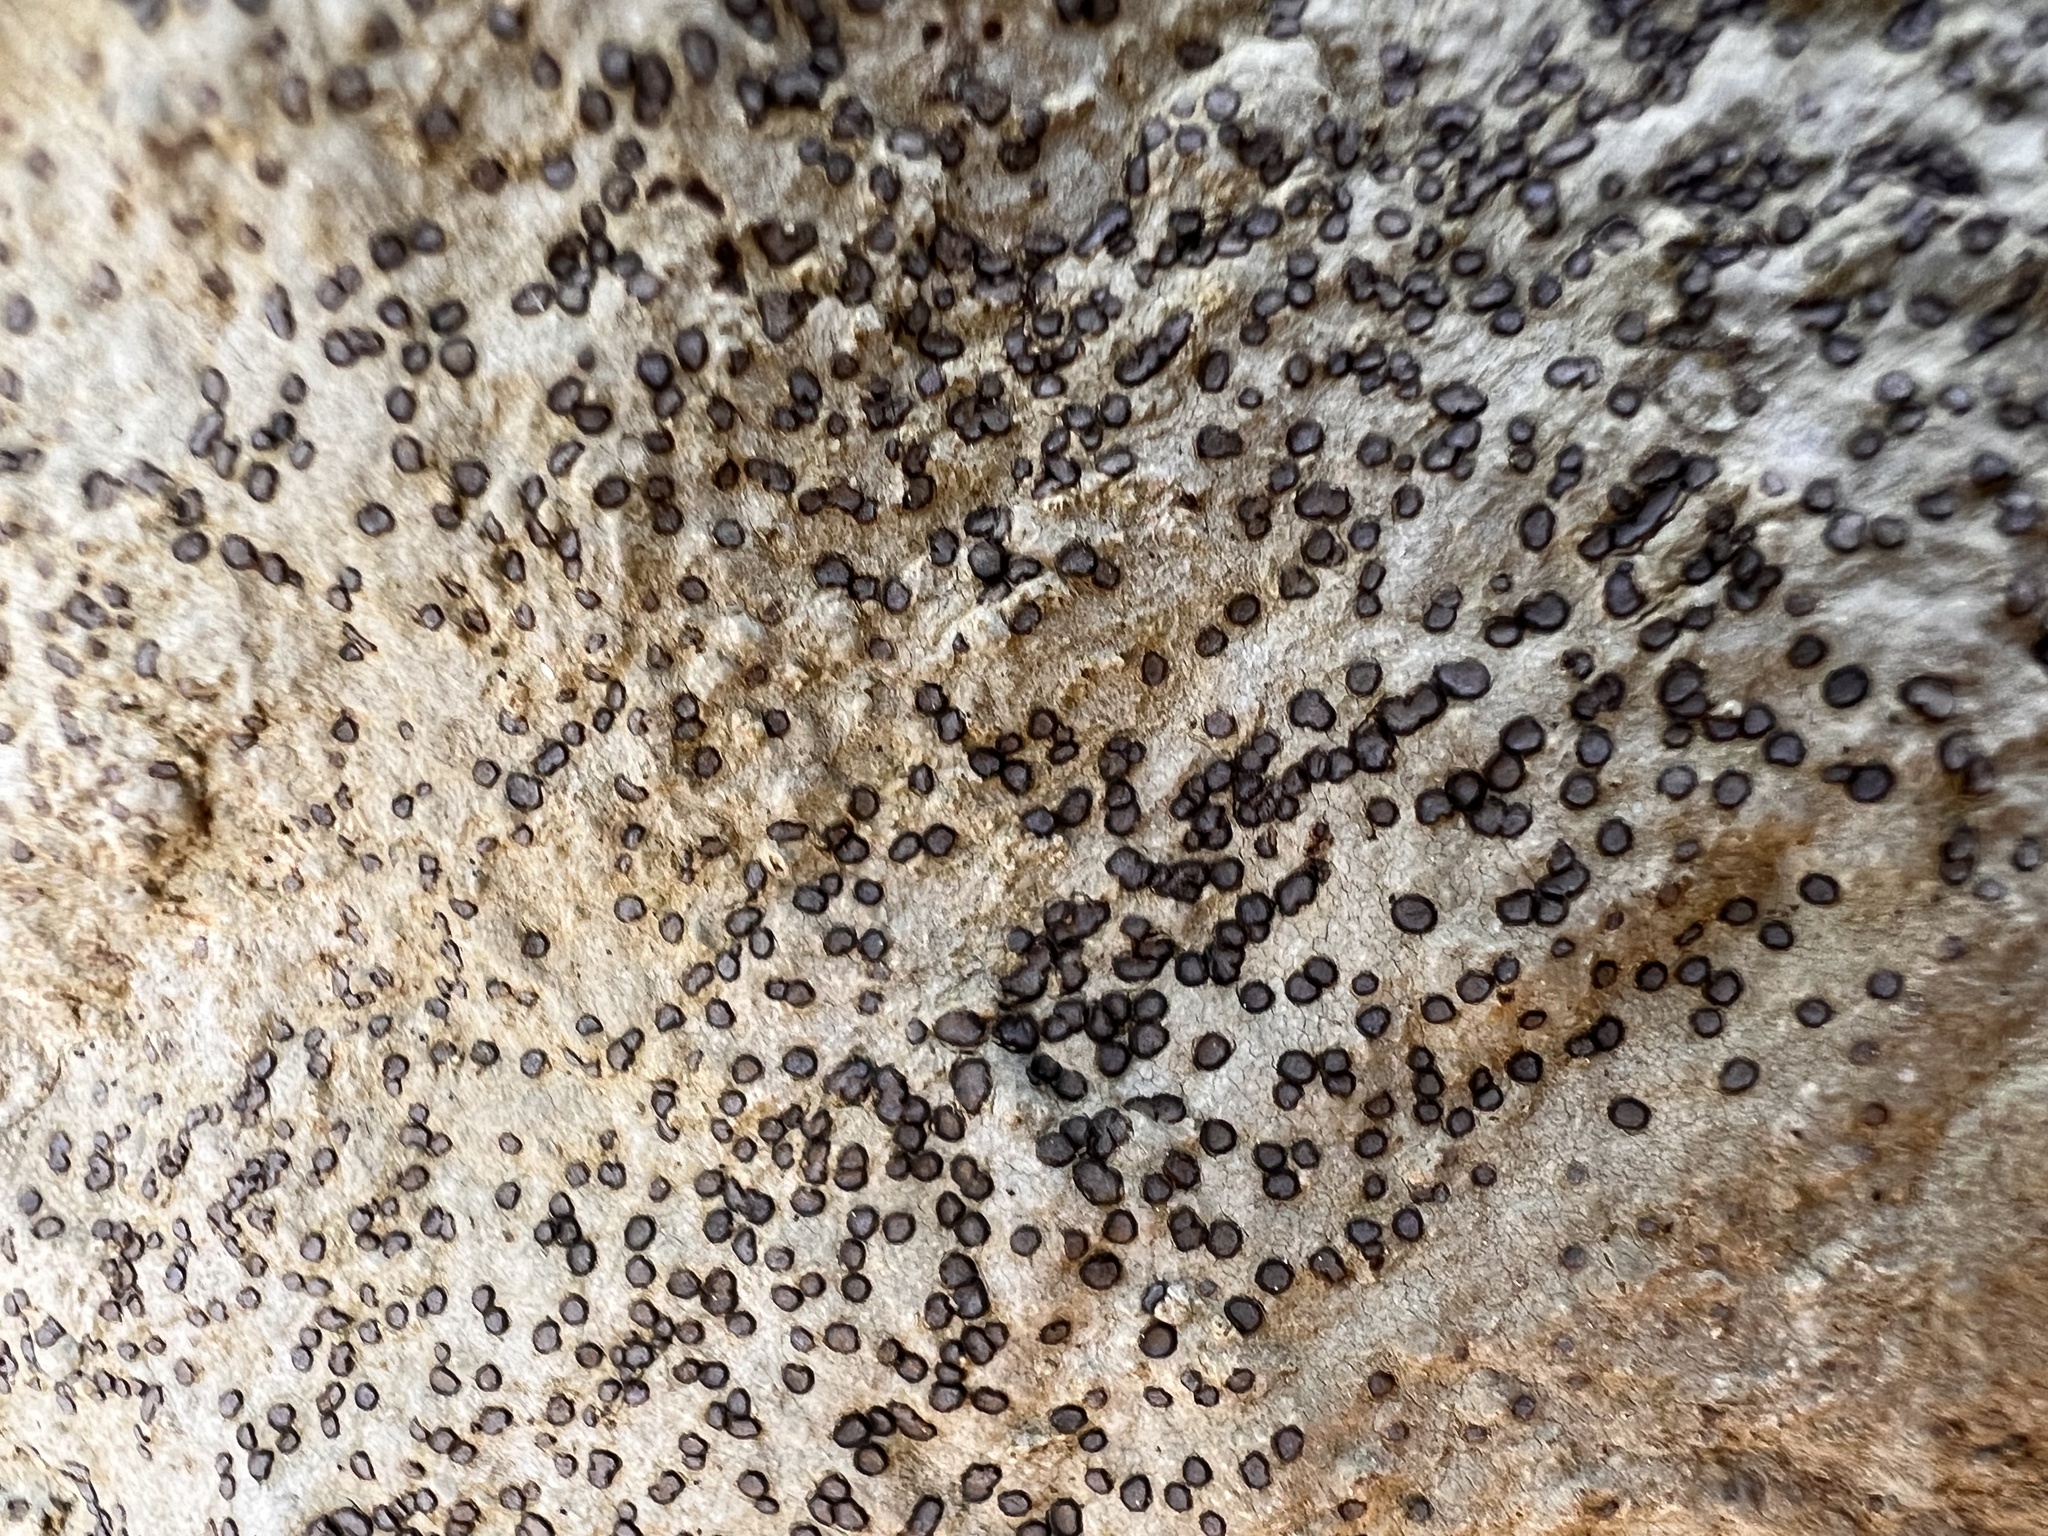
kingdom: Fungi
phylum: Ascomycota
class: Lecanoromycetes
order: Lecideales
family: Lecideaceae
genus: Porpidia
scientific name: Porpidia albocaerulescens
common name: Smokey-eyed boulder lichen
